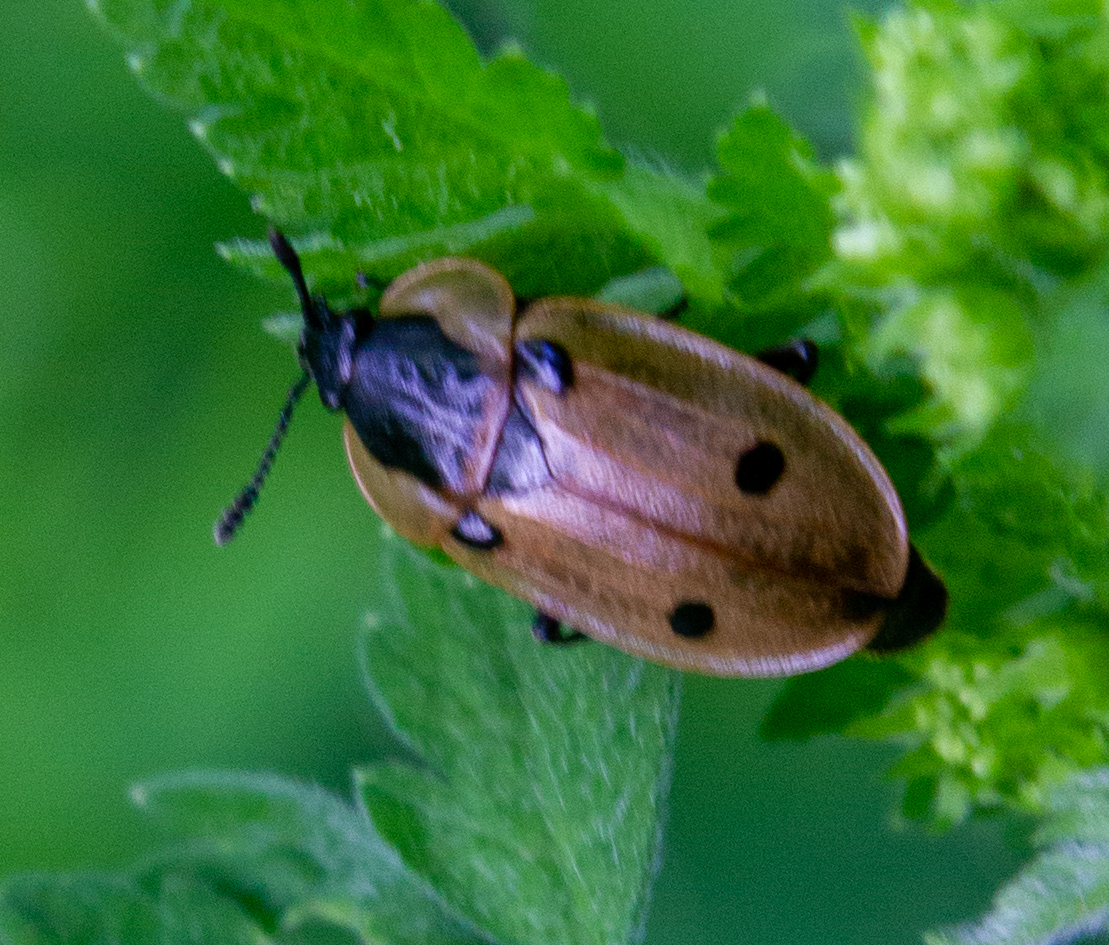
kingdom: Animalia
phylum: Arthropoda
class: Insecta
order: Coleoptera
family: Staphylinidae
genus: Dendroxena
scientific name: Dendroxena quadrimaculata
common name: Carrion beetle
